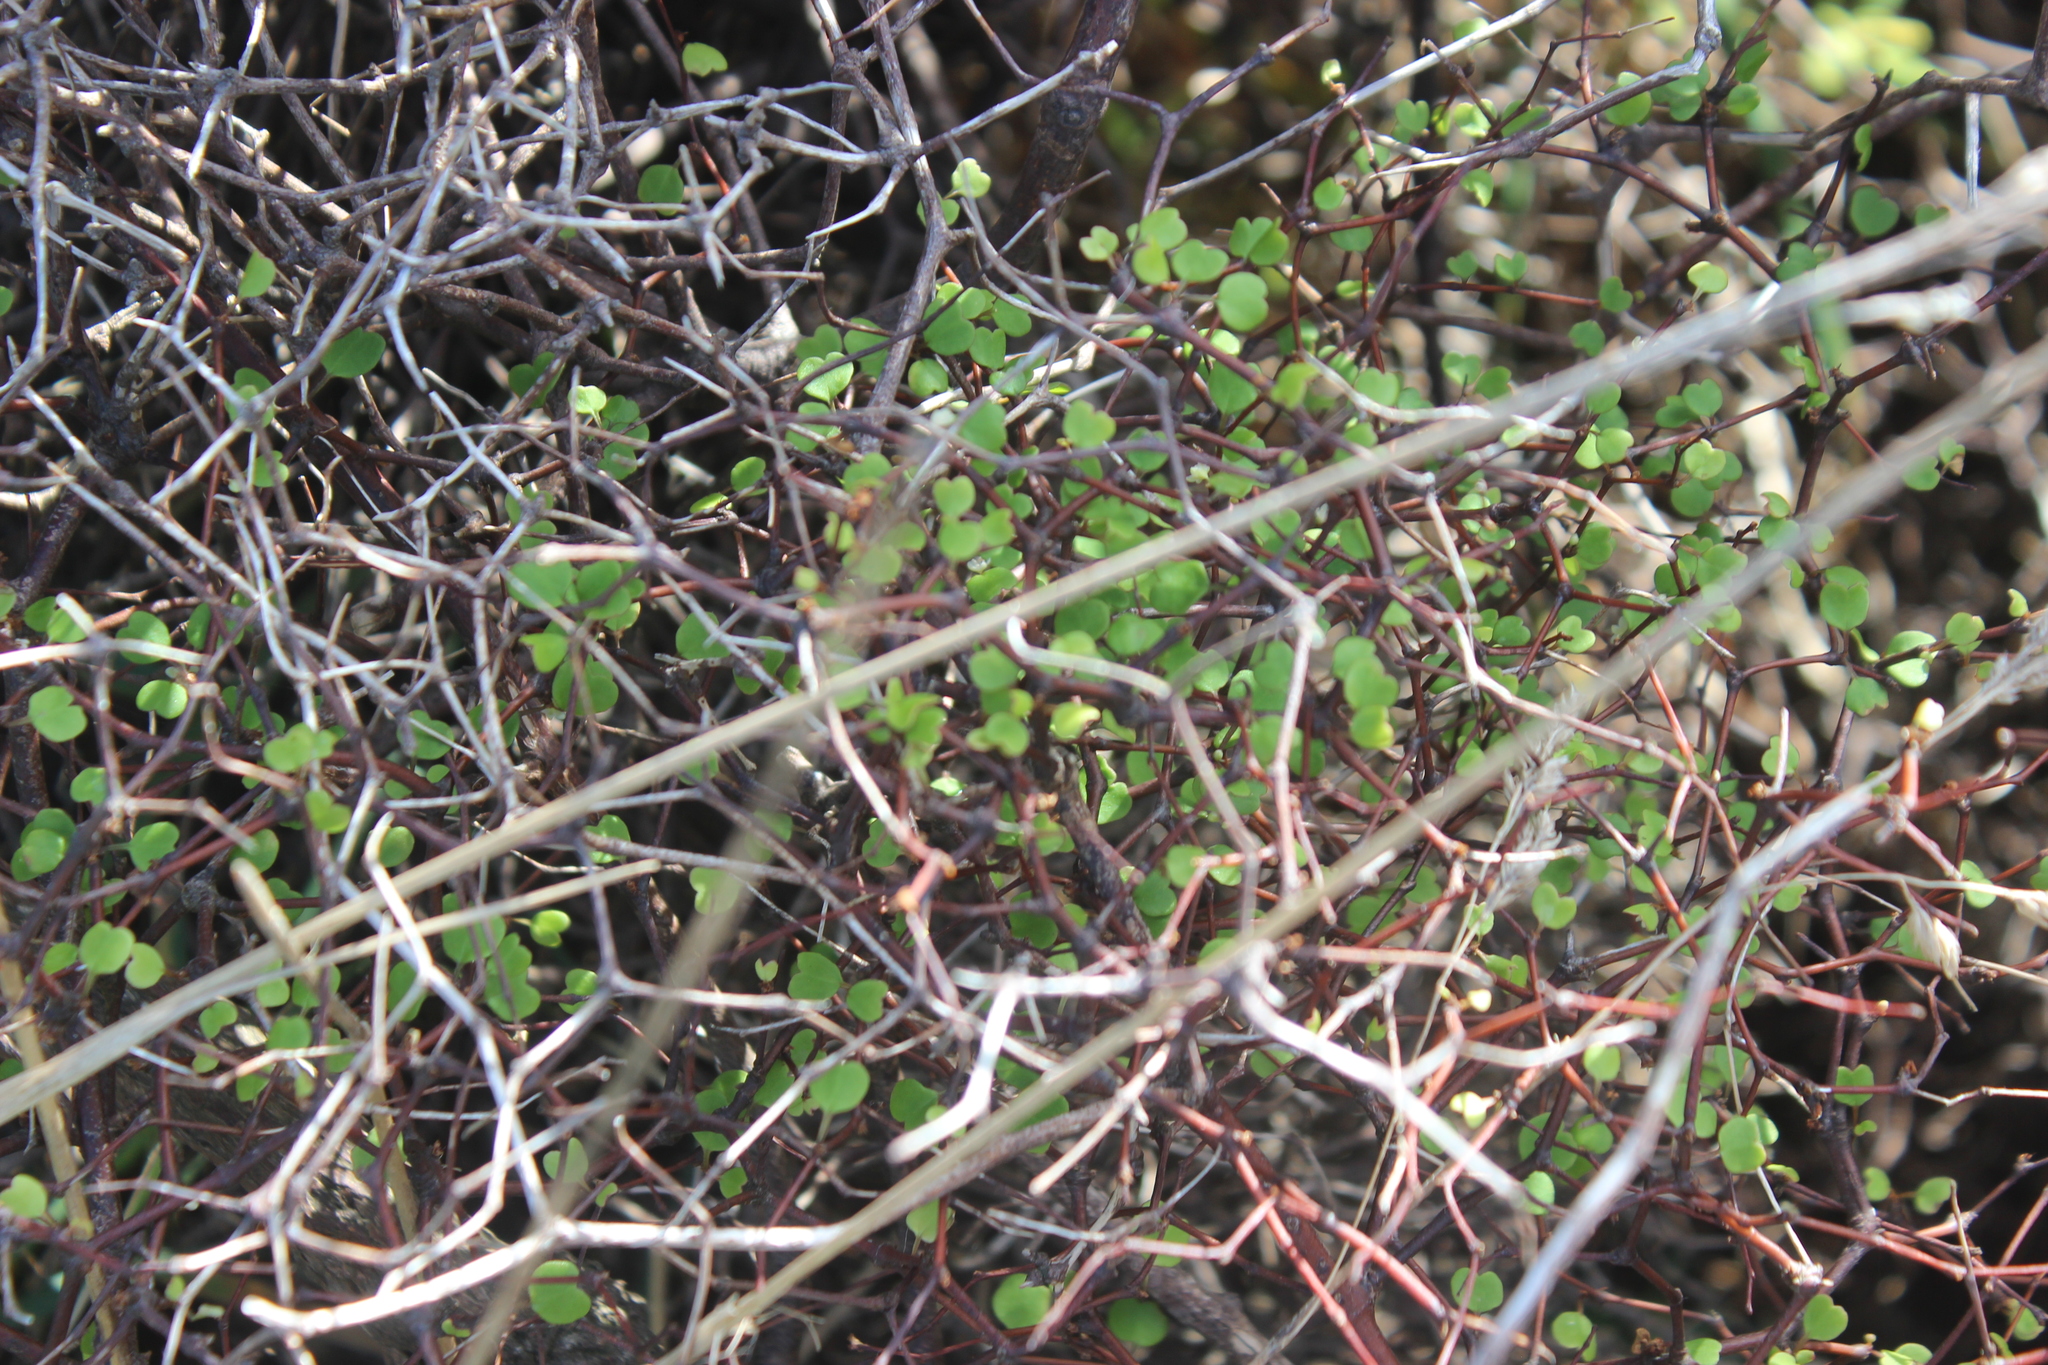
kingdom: Plantae
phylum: Tracheophyta
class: Magnoliopsida
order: Caryophyllales
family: Polygonaceae
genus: Muehlenbeckia
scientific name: Muehlenbeckia astonii
